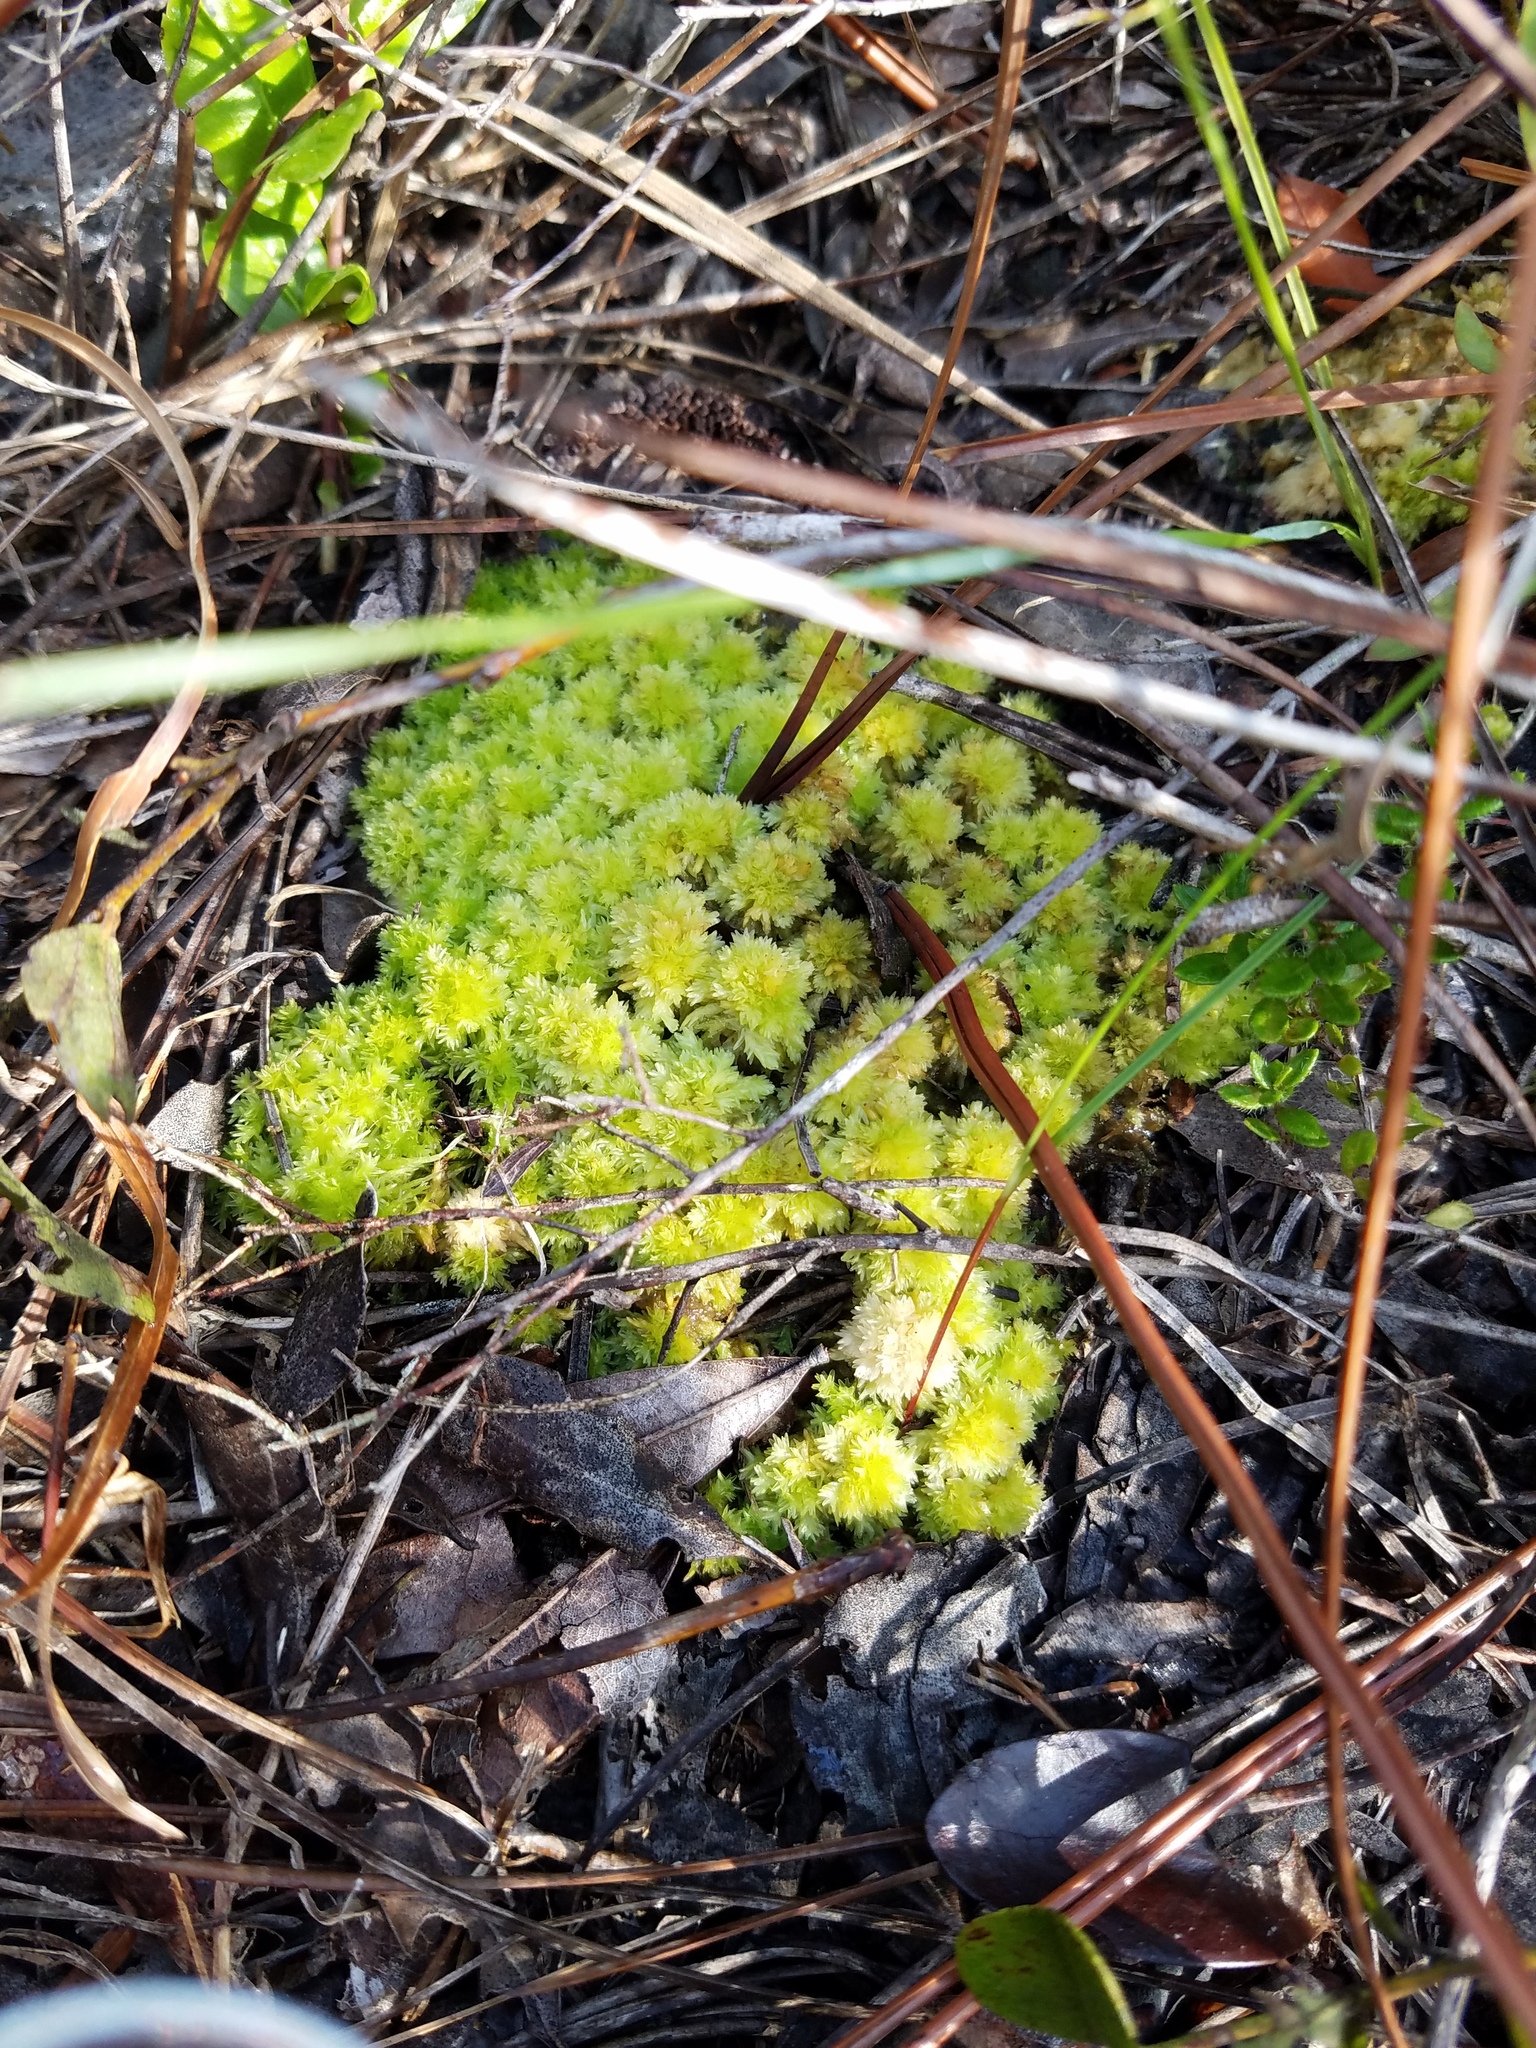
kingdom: Plantae
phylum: Bryophyta
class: Sphagnopsida
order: Sphagnales
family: Sphagnaceae
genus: Sphagnum
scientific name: Sphagnum strictum
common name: Pale bog-moss
